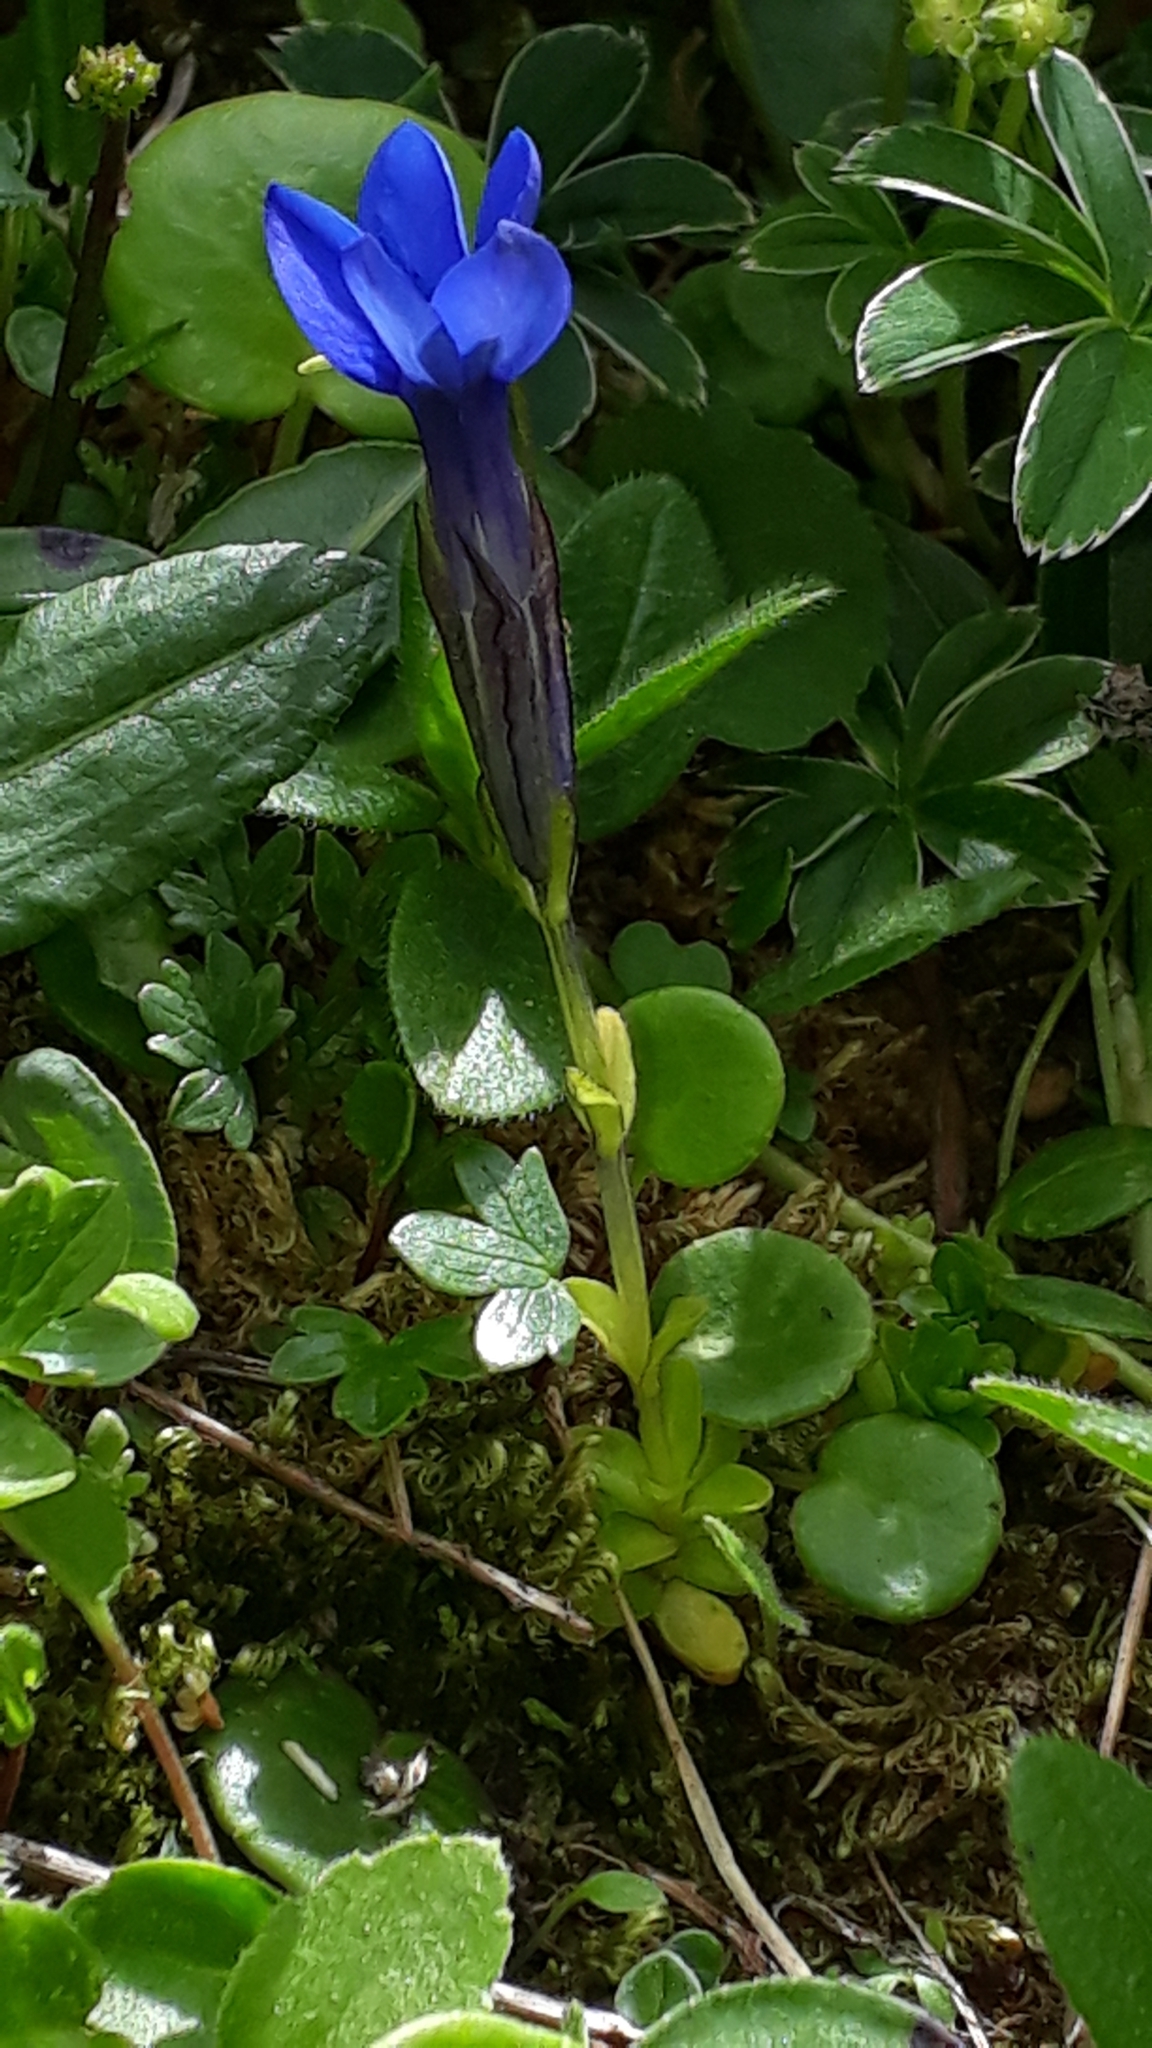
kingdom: Plantae
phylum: Tracheophyta
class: Magnoliopsida
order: Gentianales
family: Gentianaceae
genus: Gentiana
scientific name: Gentiana bavarica
